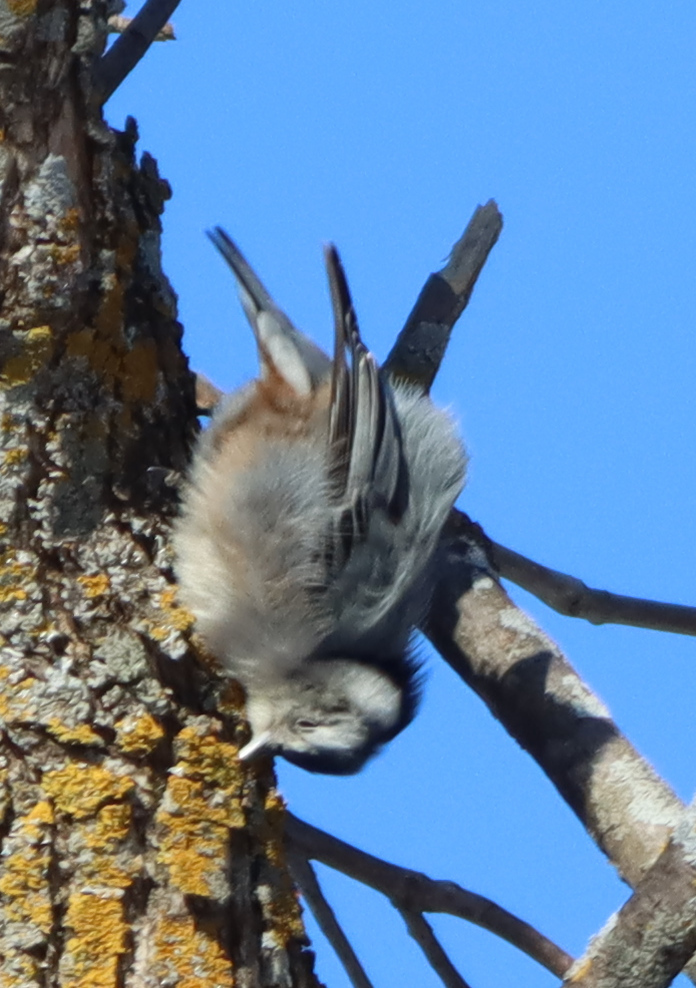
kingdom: Animalia
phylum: Chordata
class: Aves
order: Passeriformes
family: Sittidae
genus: Sitta
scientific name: Sitta carolinensis
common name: White-breasted nuthatch
